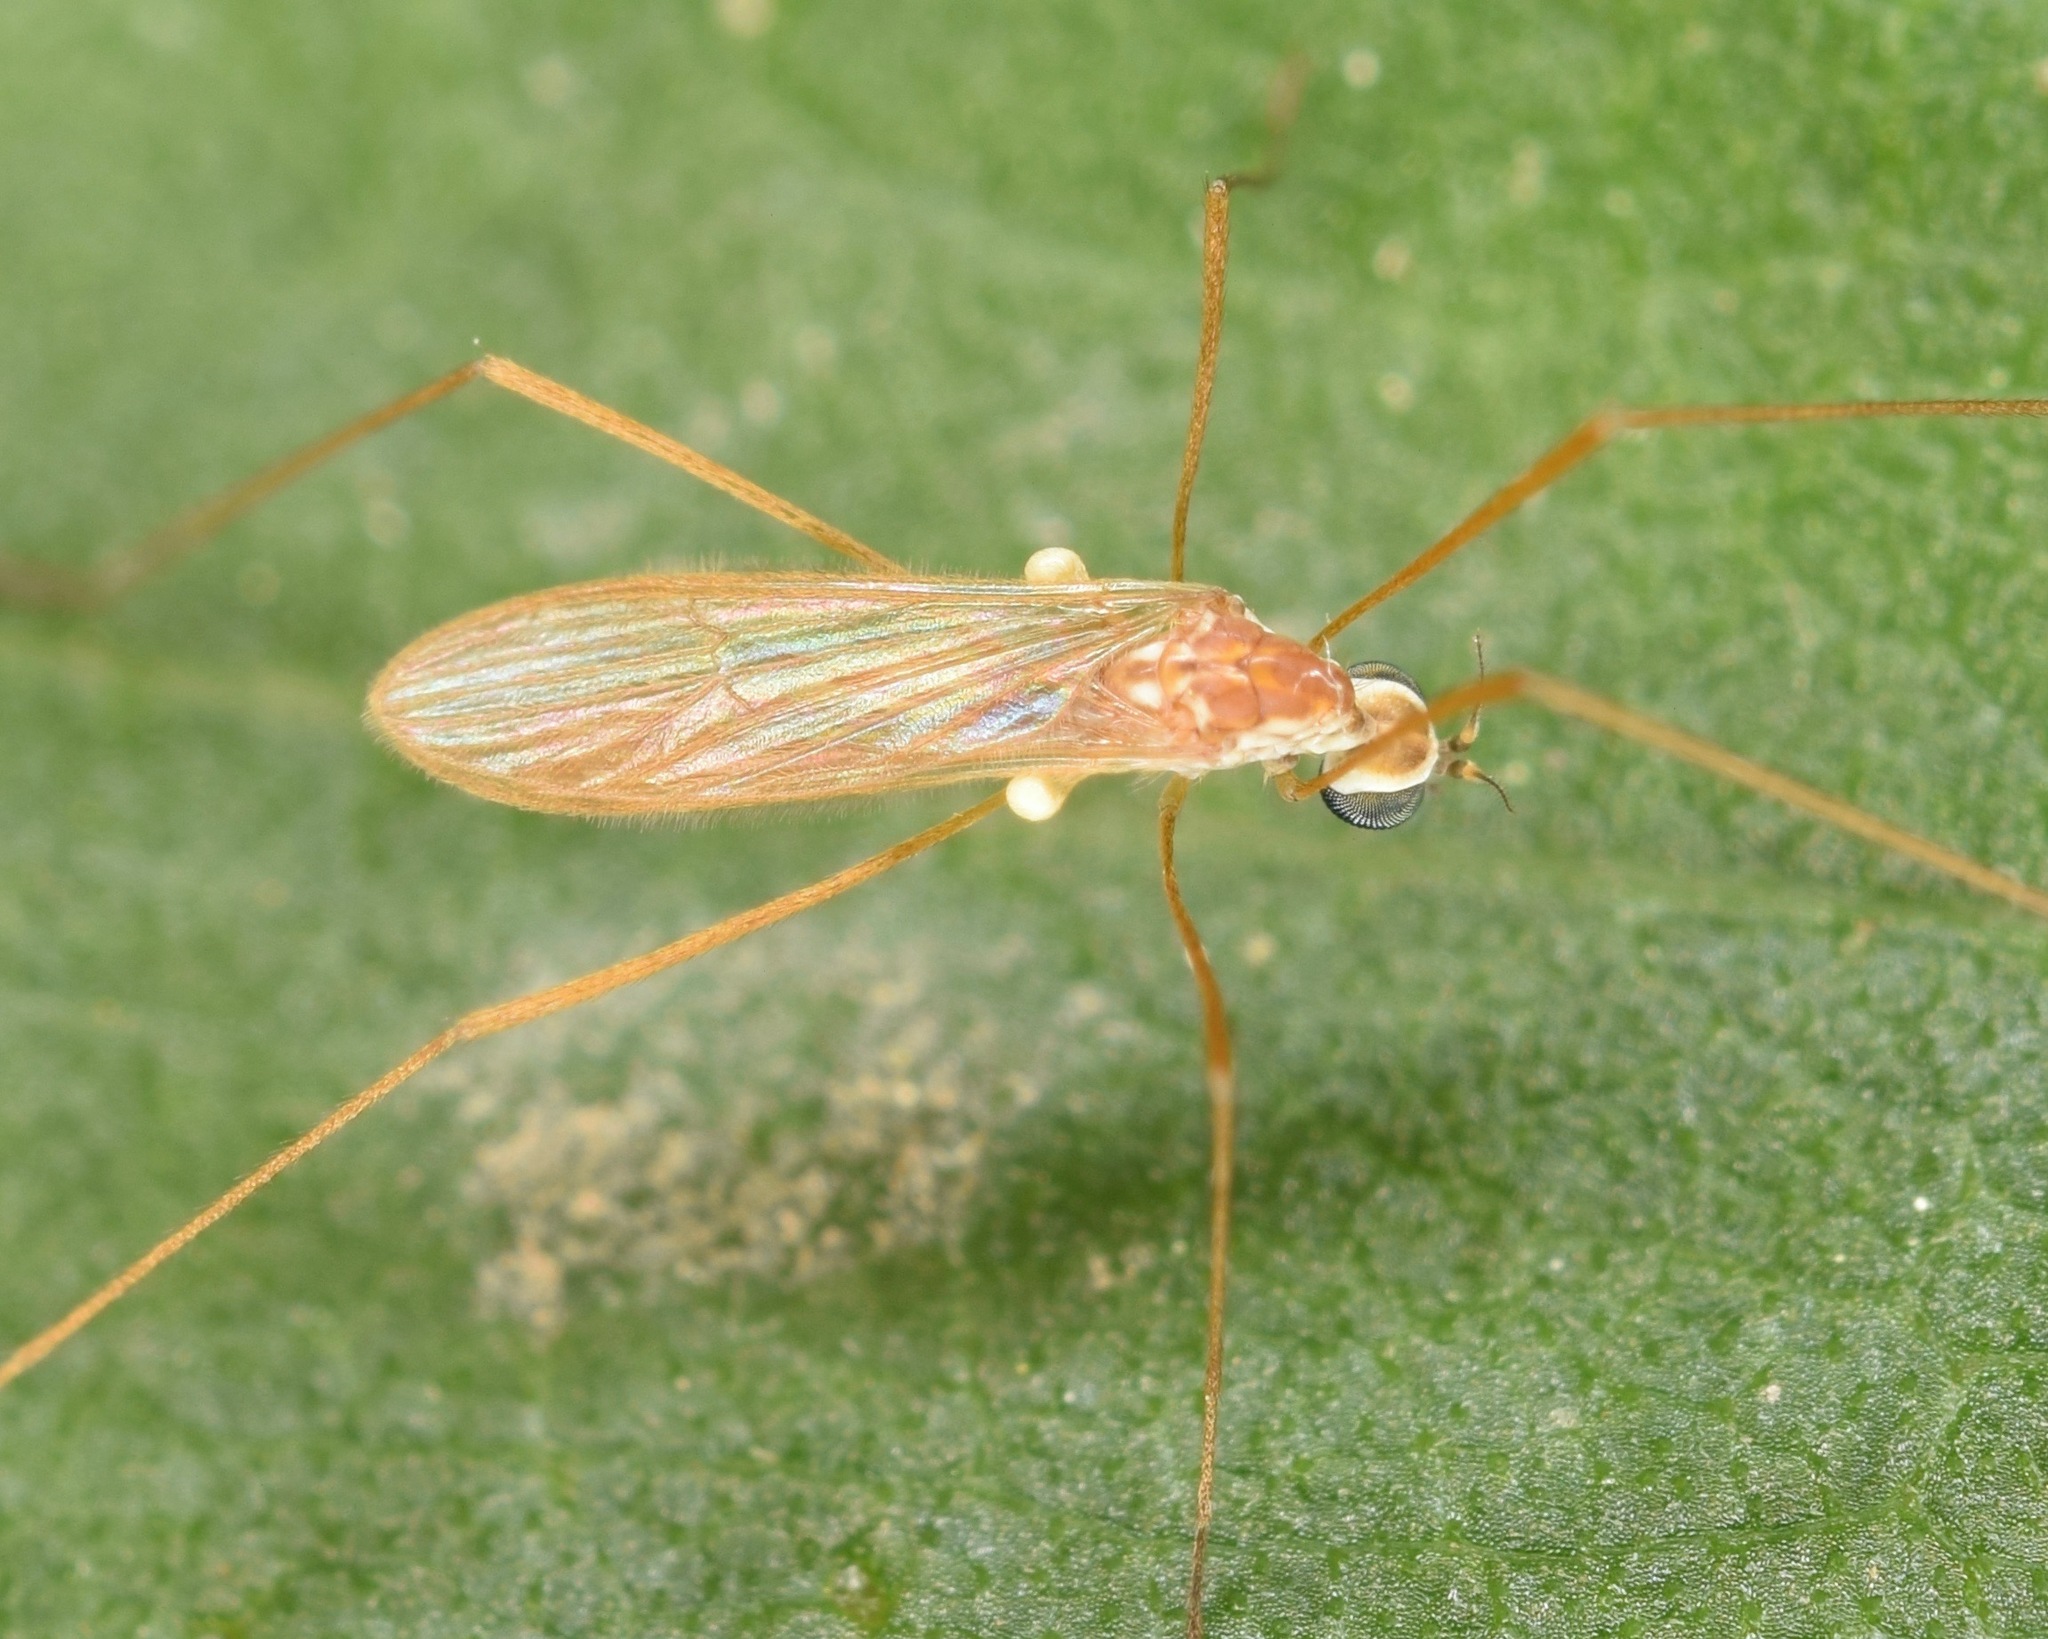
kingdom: Animalia
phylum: Arthropoda
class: Insecta
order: Diptera
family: Limoniidae
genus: Erioptera
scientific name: Erioptera vespertina
